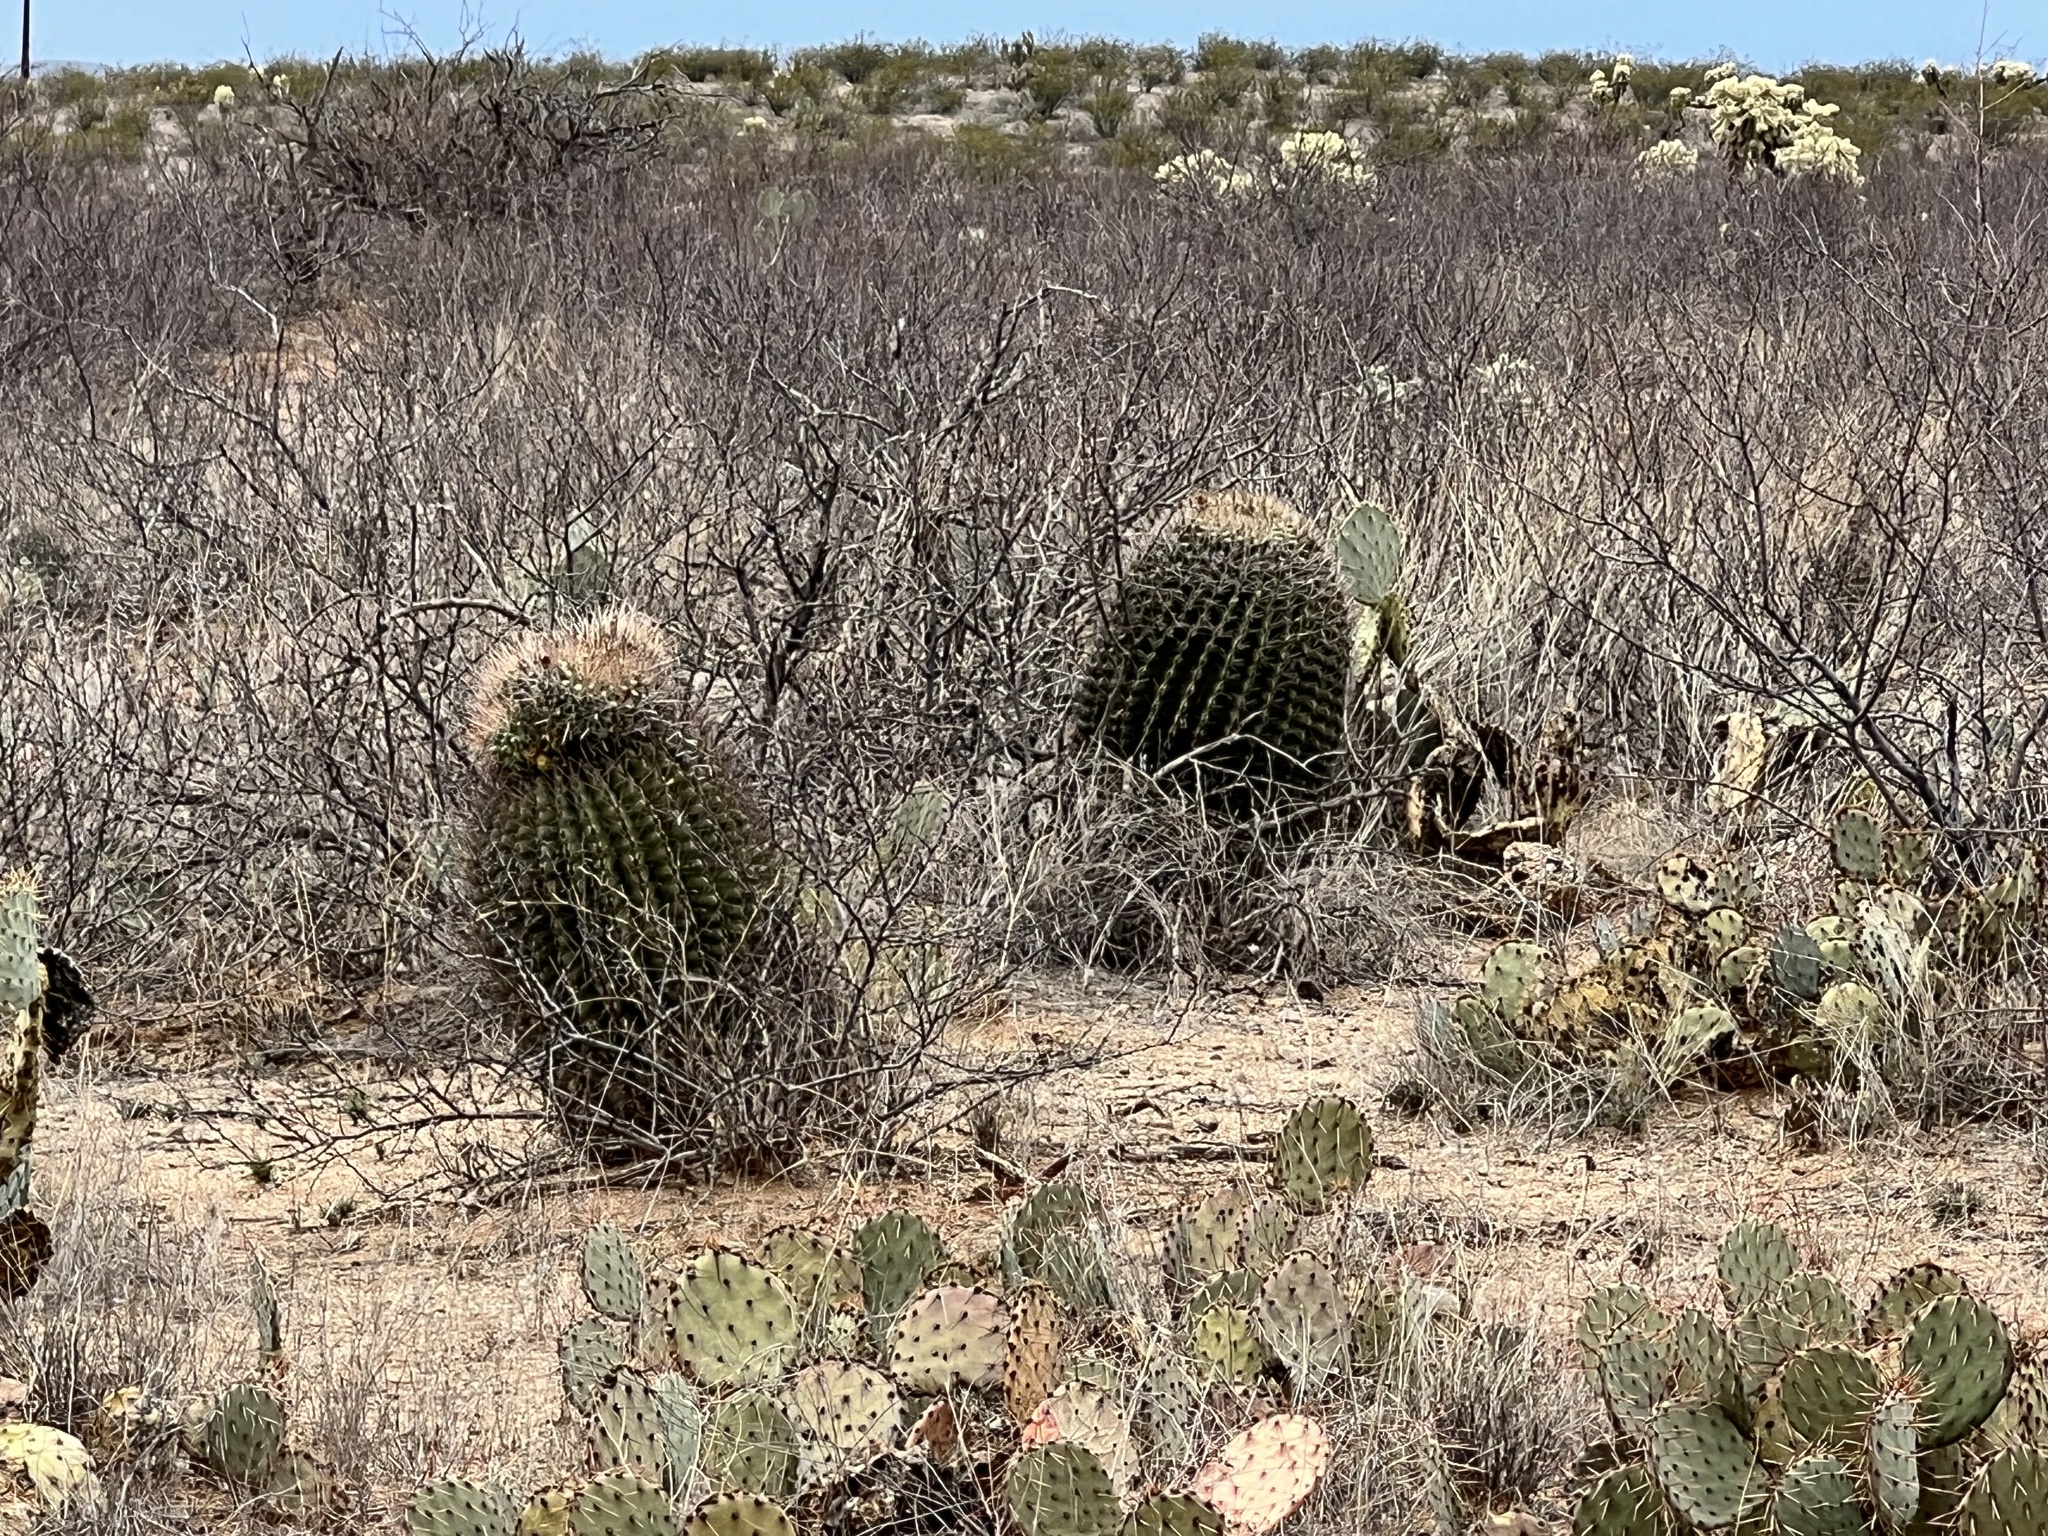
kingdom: Plantae
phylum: Tracheophyta
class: Magnoliopsida
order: Caryophyllales
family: Cactaceae
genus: Ferocactus
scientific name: Ferocactus wislizeni
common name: Candy barrel cactus
